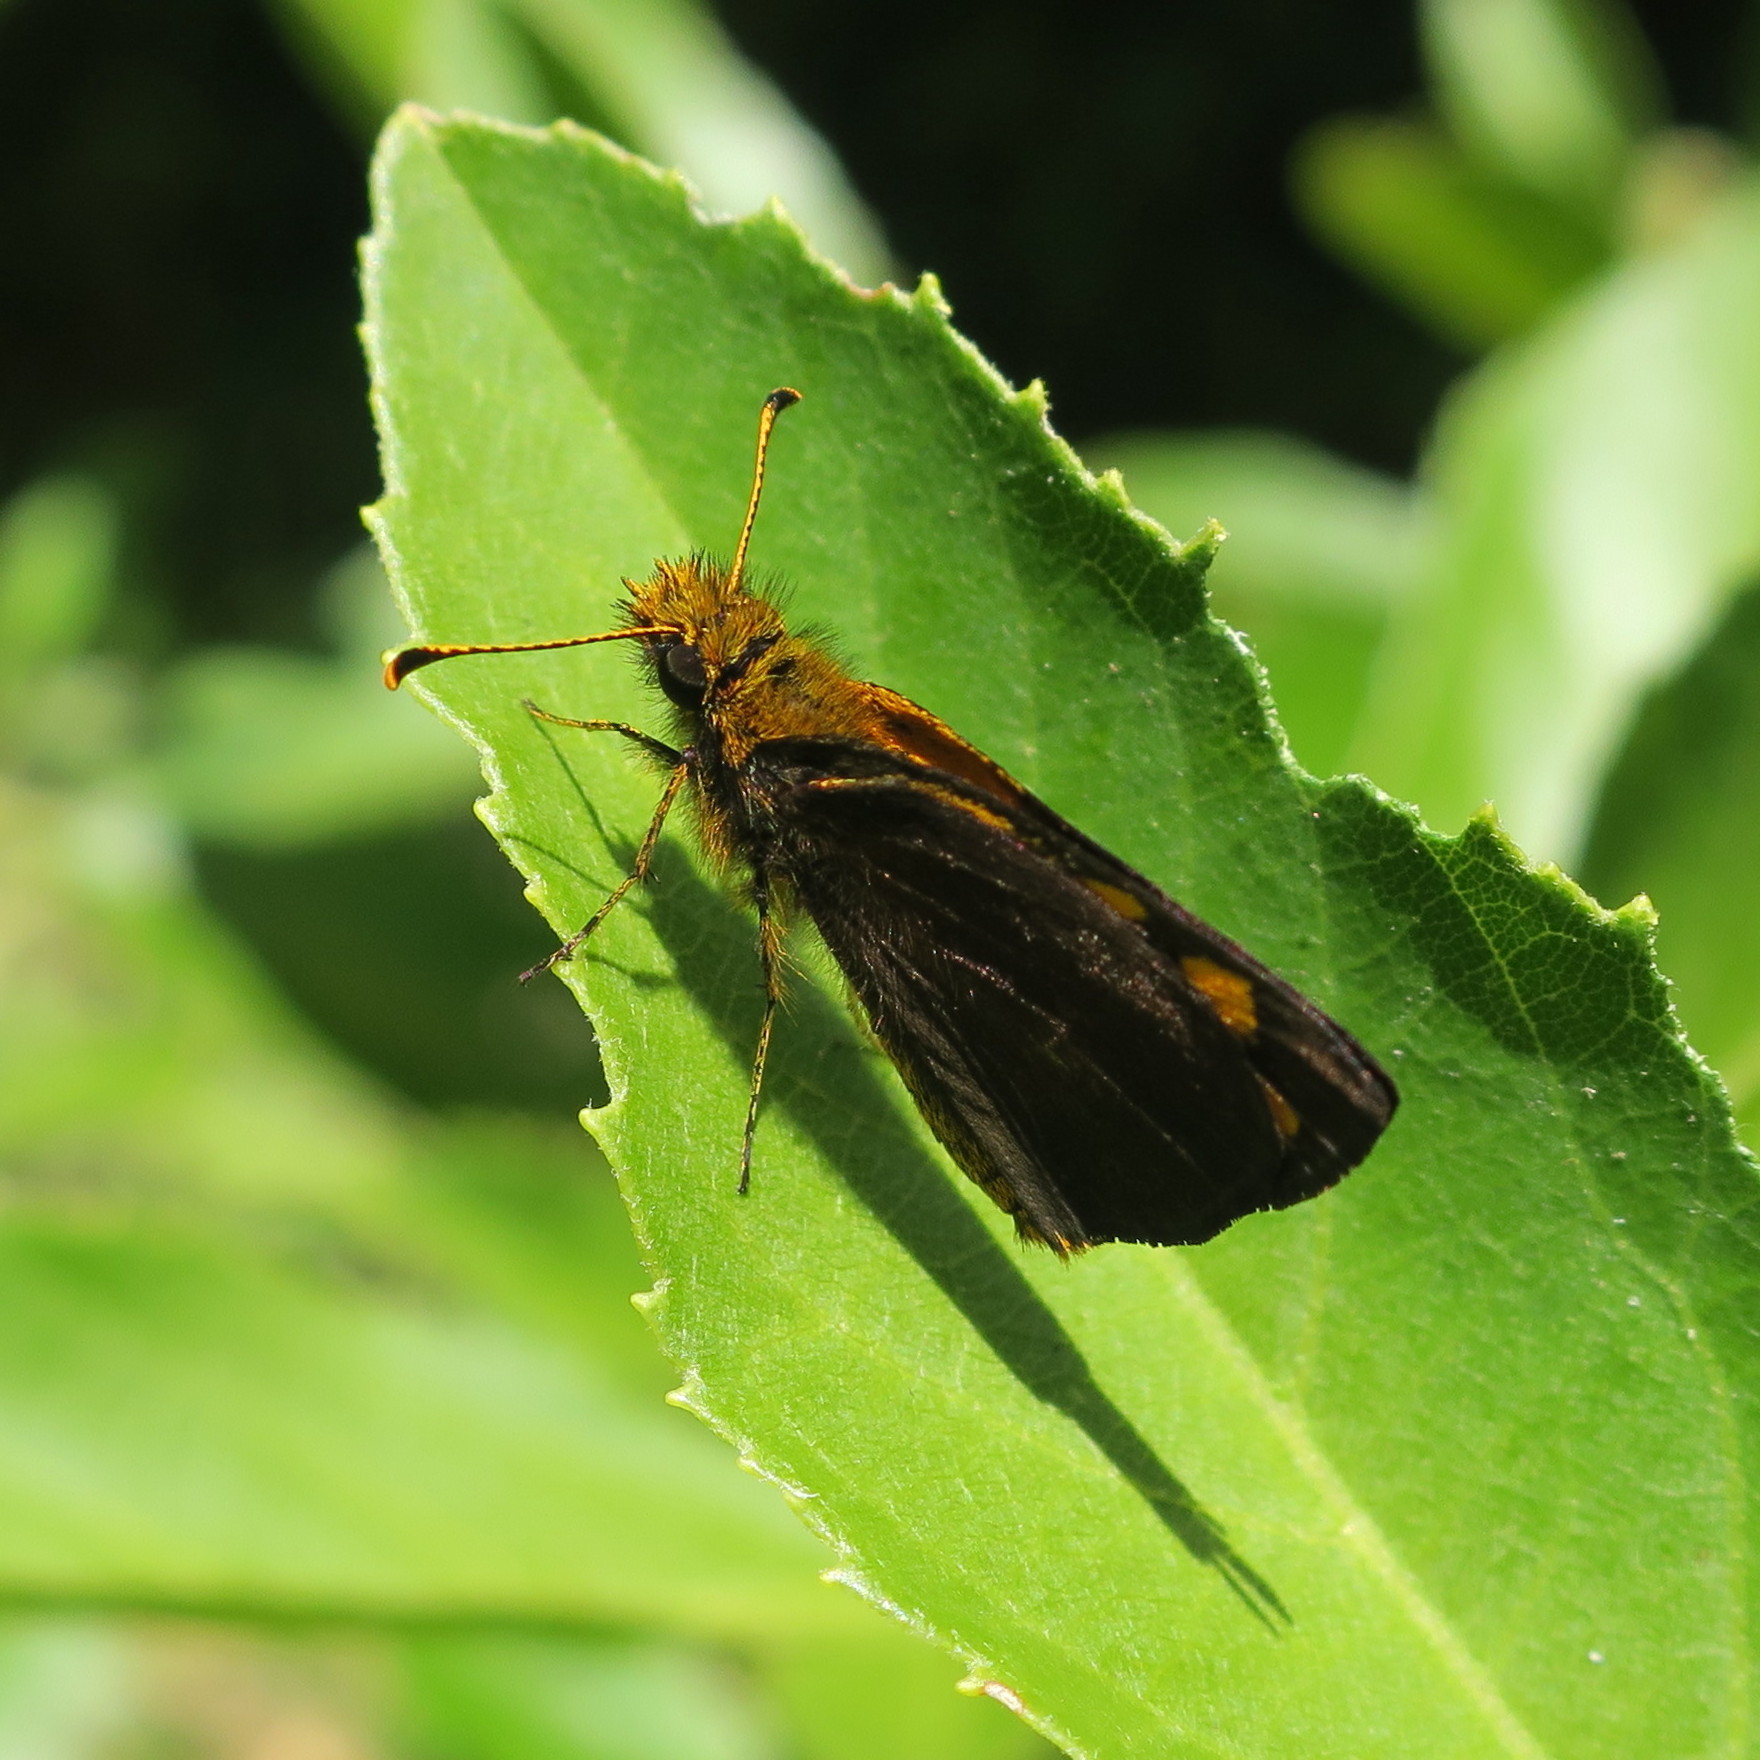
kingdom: Animalia
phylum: Arthropoda
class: Insecta
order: Lepidoptera
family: Hesperiidae
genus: Metisella
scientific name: Metisella metis
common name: Western gold-spotted sylph
